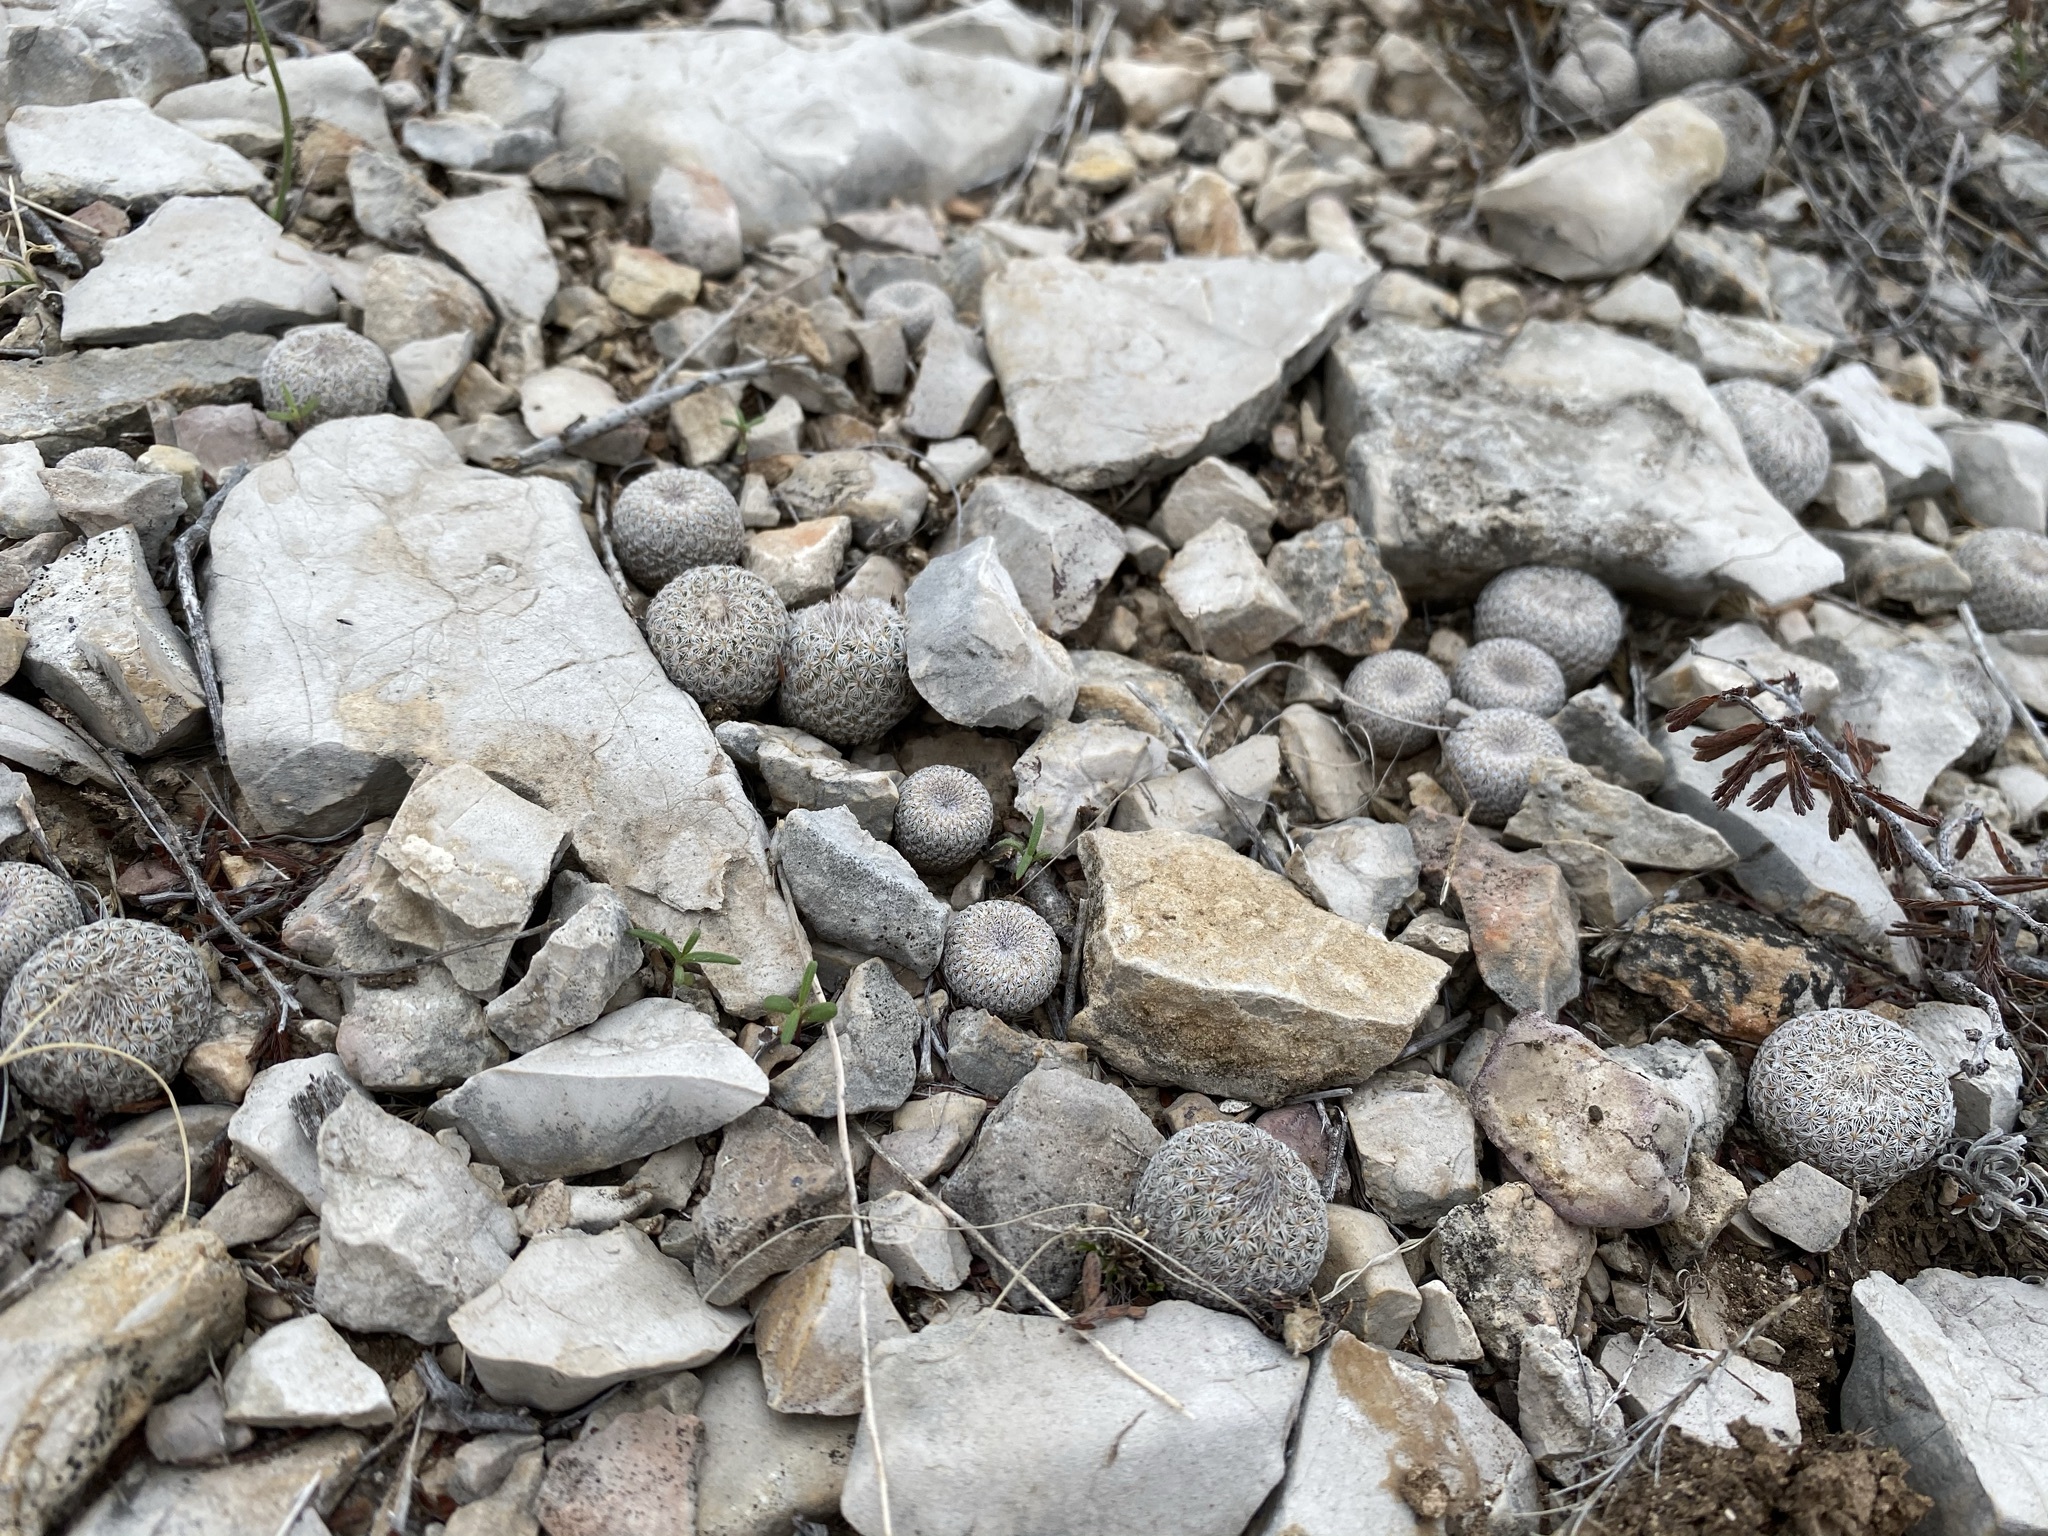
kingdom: Plantae
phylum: Tracheophyta
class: Magnoliopsida
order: Caryophyllales
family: Cactaceae
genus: Epithelantha
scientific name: Epithelantha micromeris
